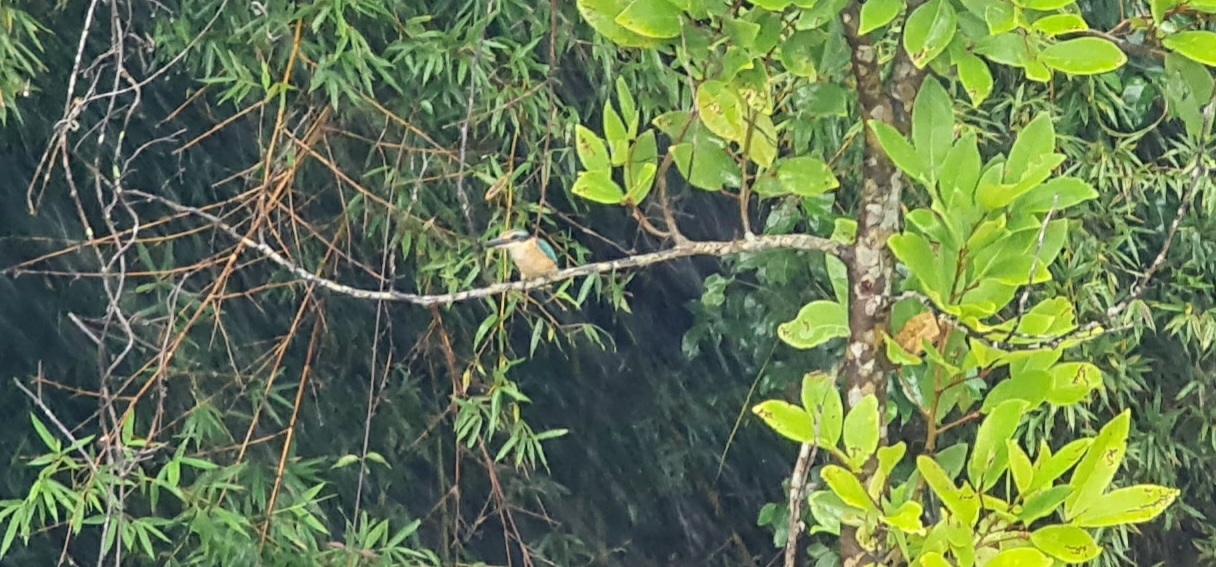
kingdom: Animalia
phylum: Chordata
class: Aves
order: Coraciiformes
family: Alcedinidae
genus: Todiramphus
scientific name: Todiramphus sanctus
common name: Sacred kingfisher
